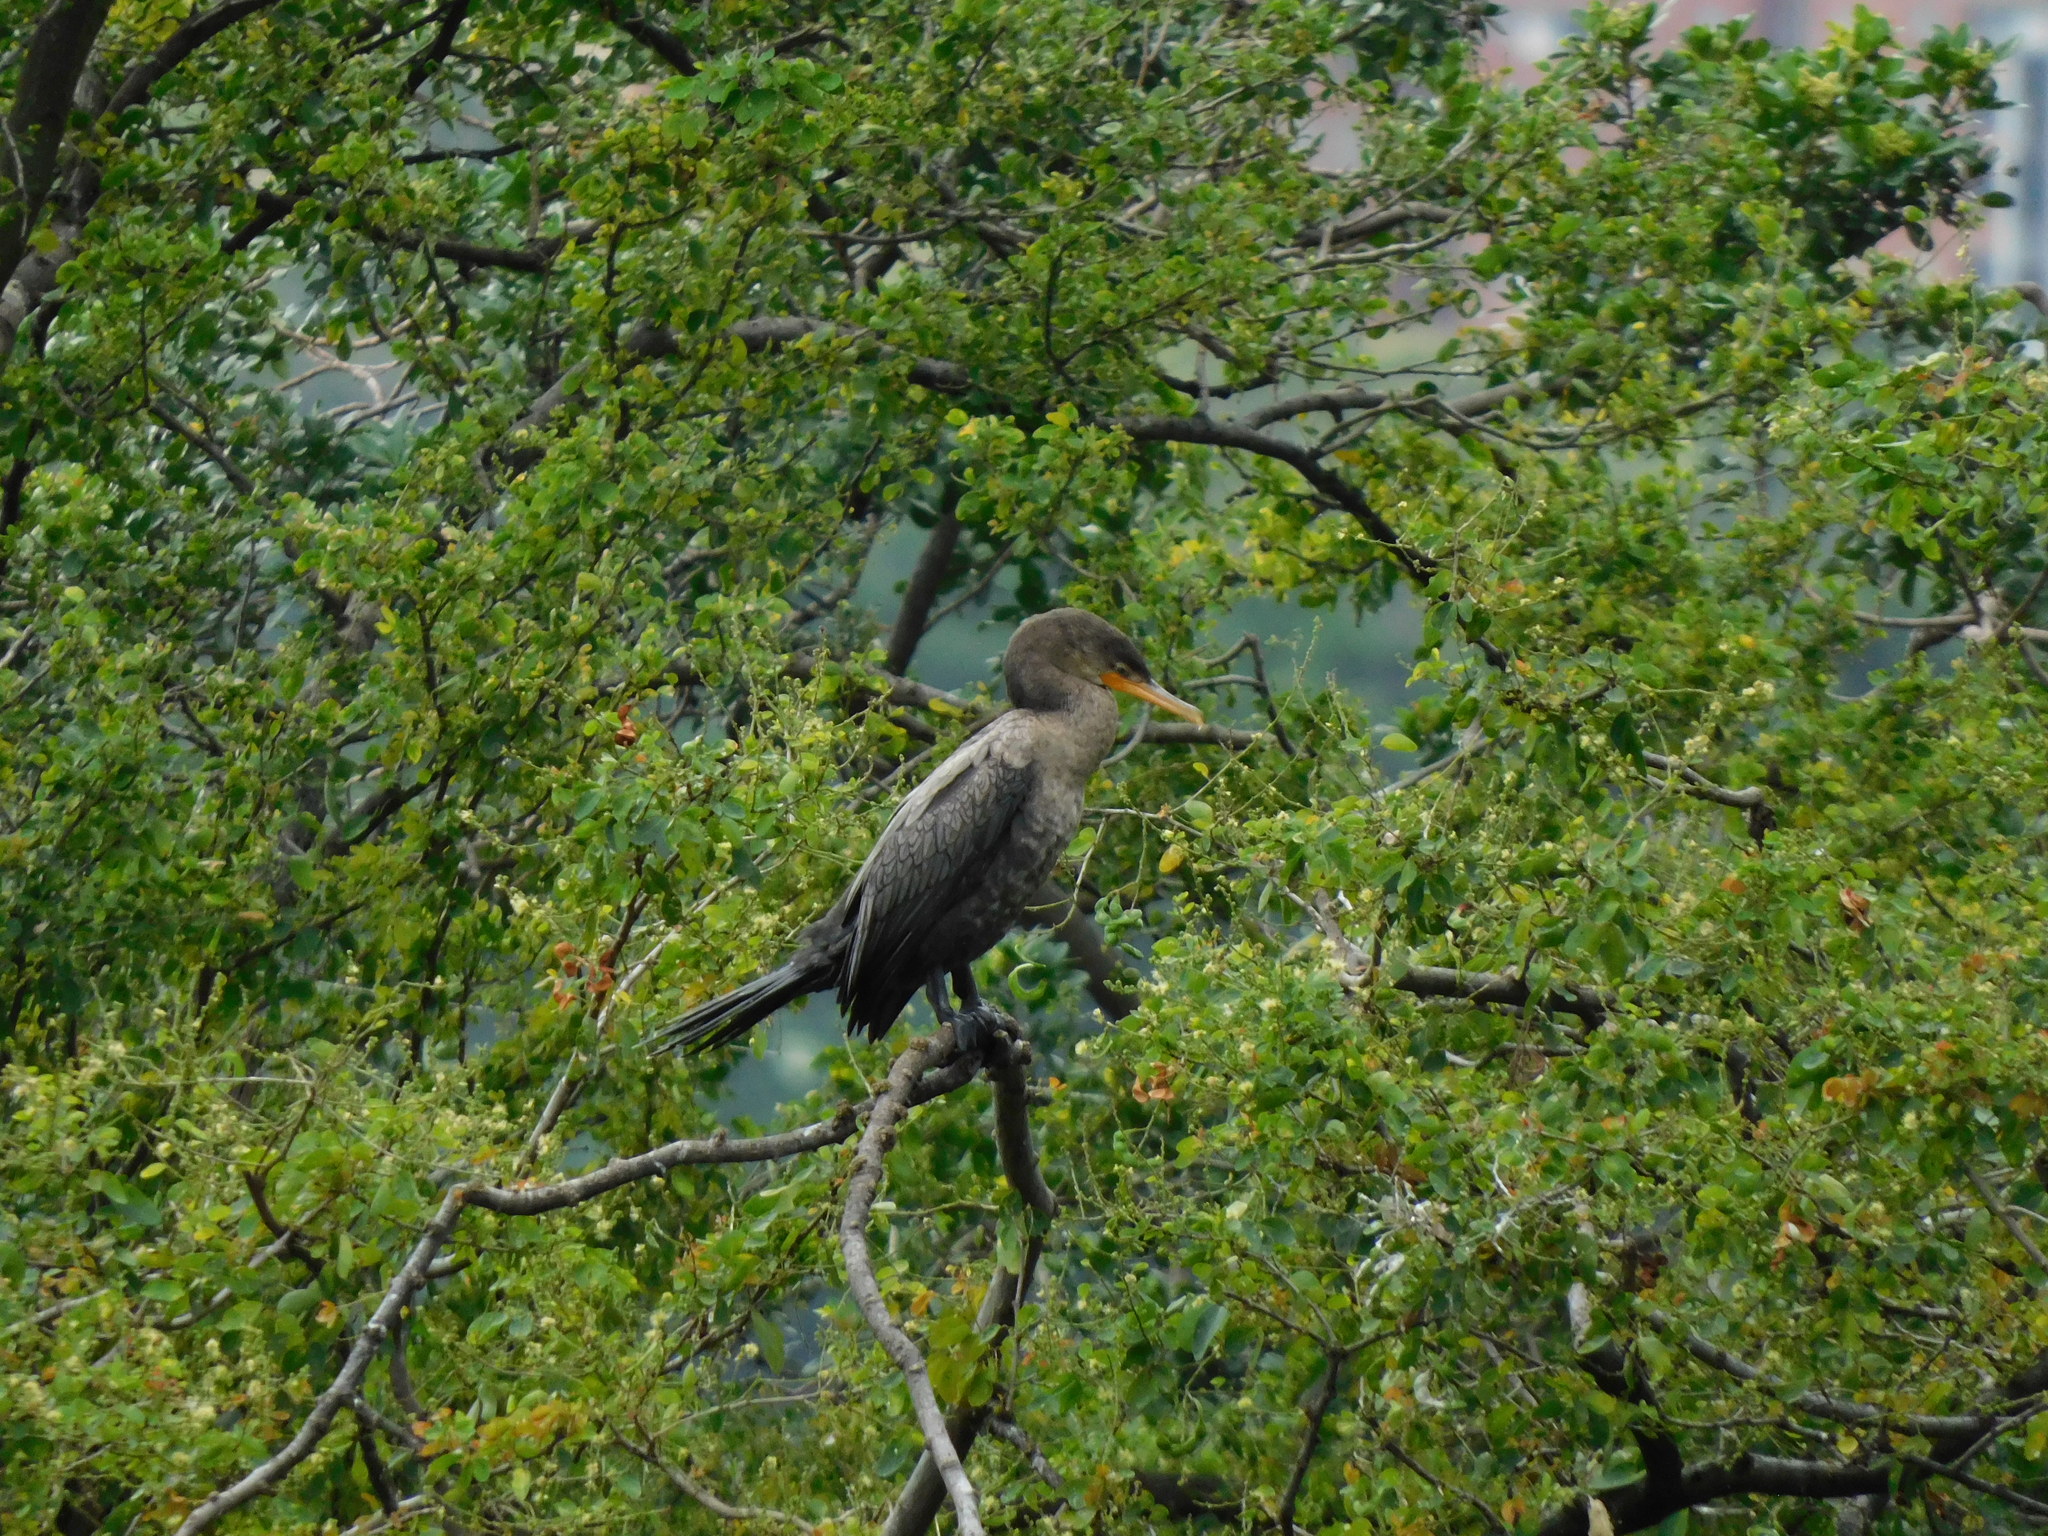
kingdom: Animalia
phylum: Chordata
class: Aves
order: Suliformes
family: Phalacrocoracidae
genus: Phalacrocorax
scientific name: Phalacrocorax brasilianus
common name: Neotropic cormorant
